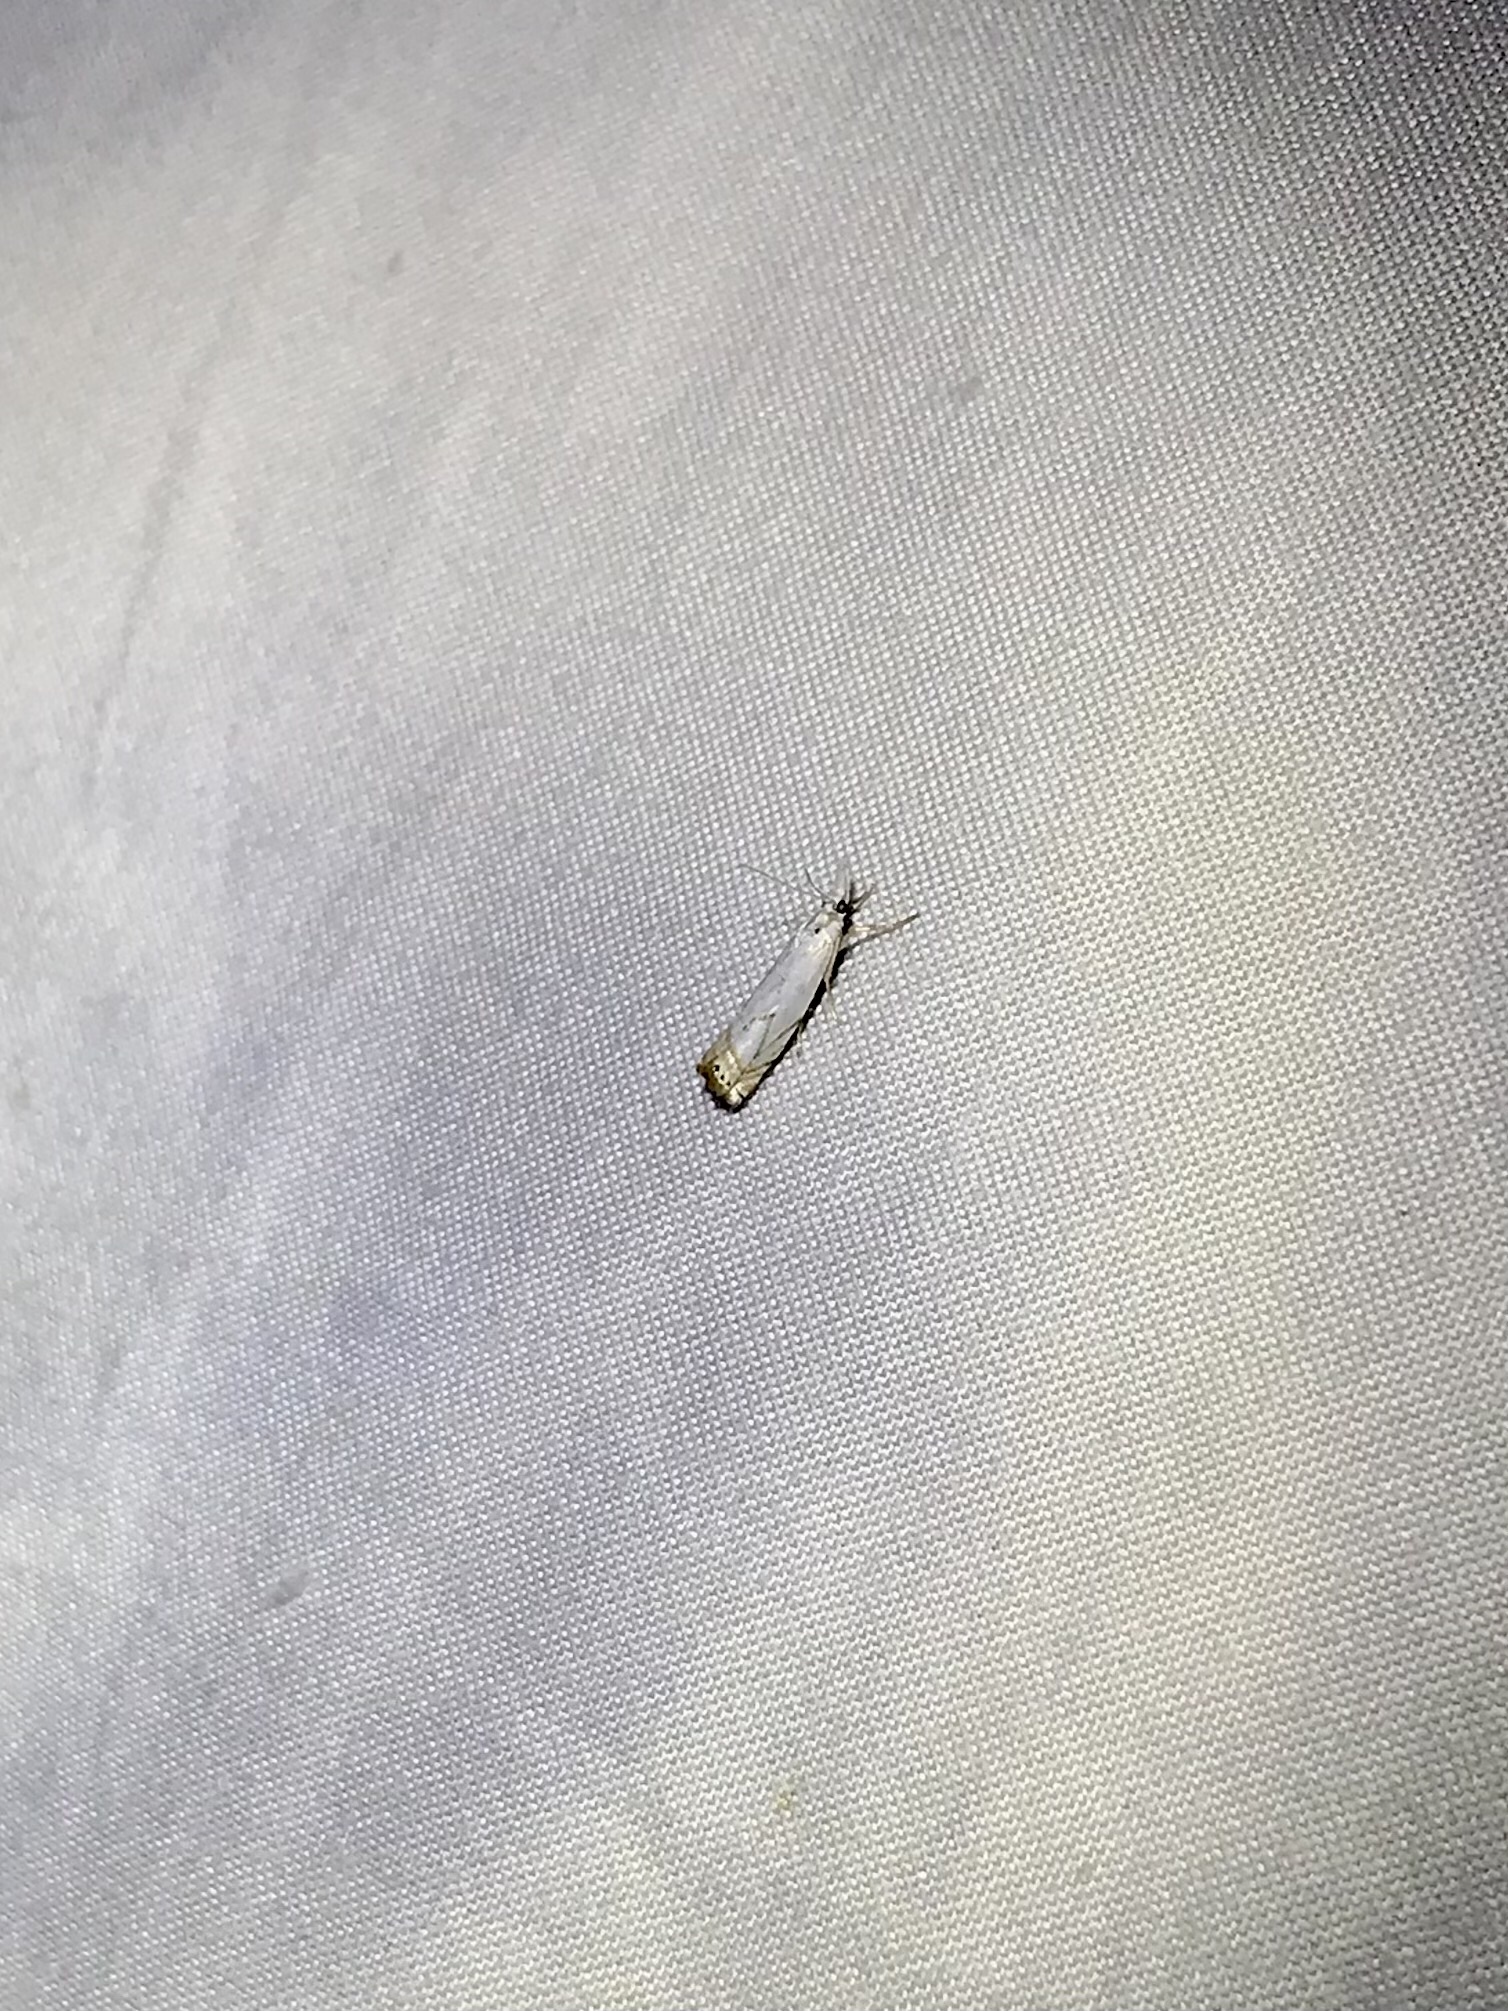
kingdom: Animalia
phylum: Arthropoda
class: Insecta
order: Lepidoptera
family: Crambidae
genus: Crambus
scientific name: Crambus albellus
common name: Small white grass-veneer
